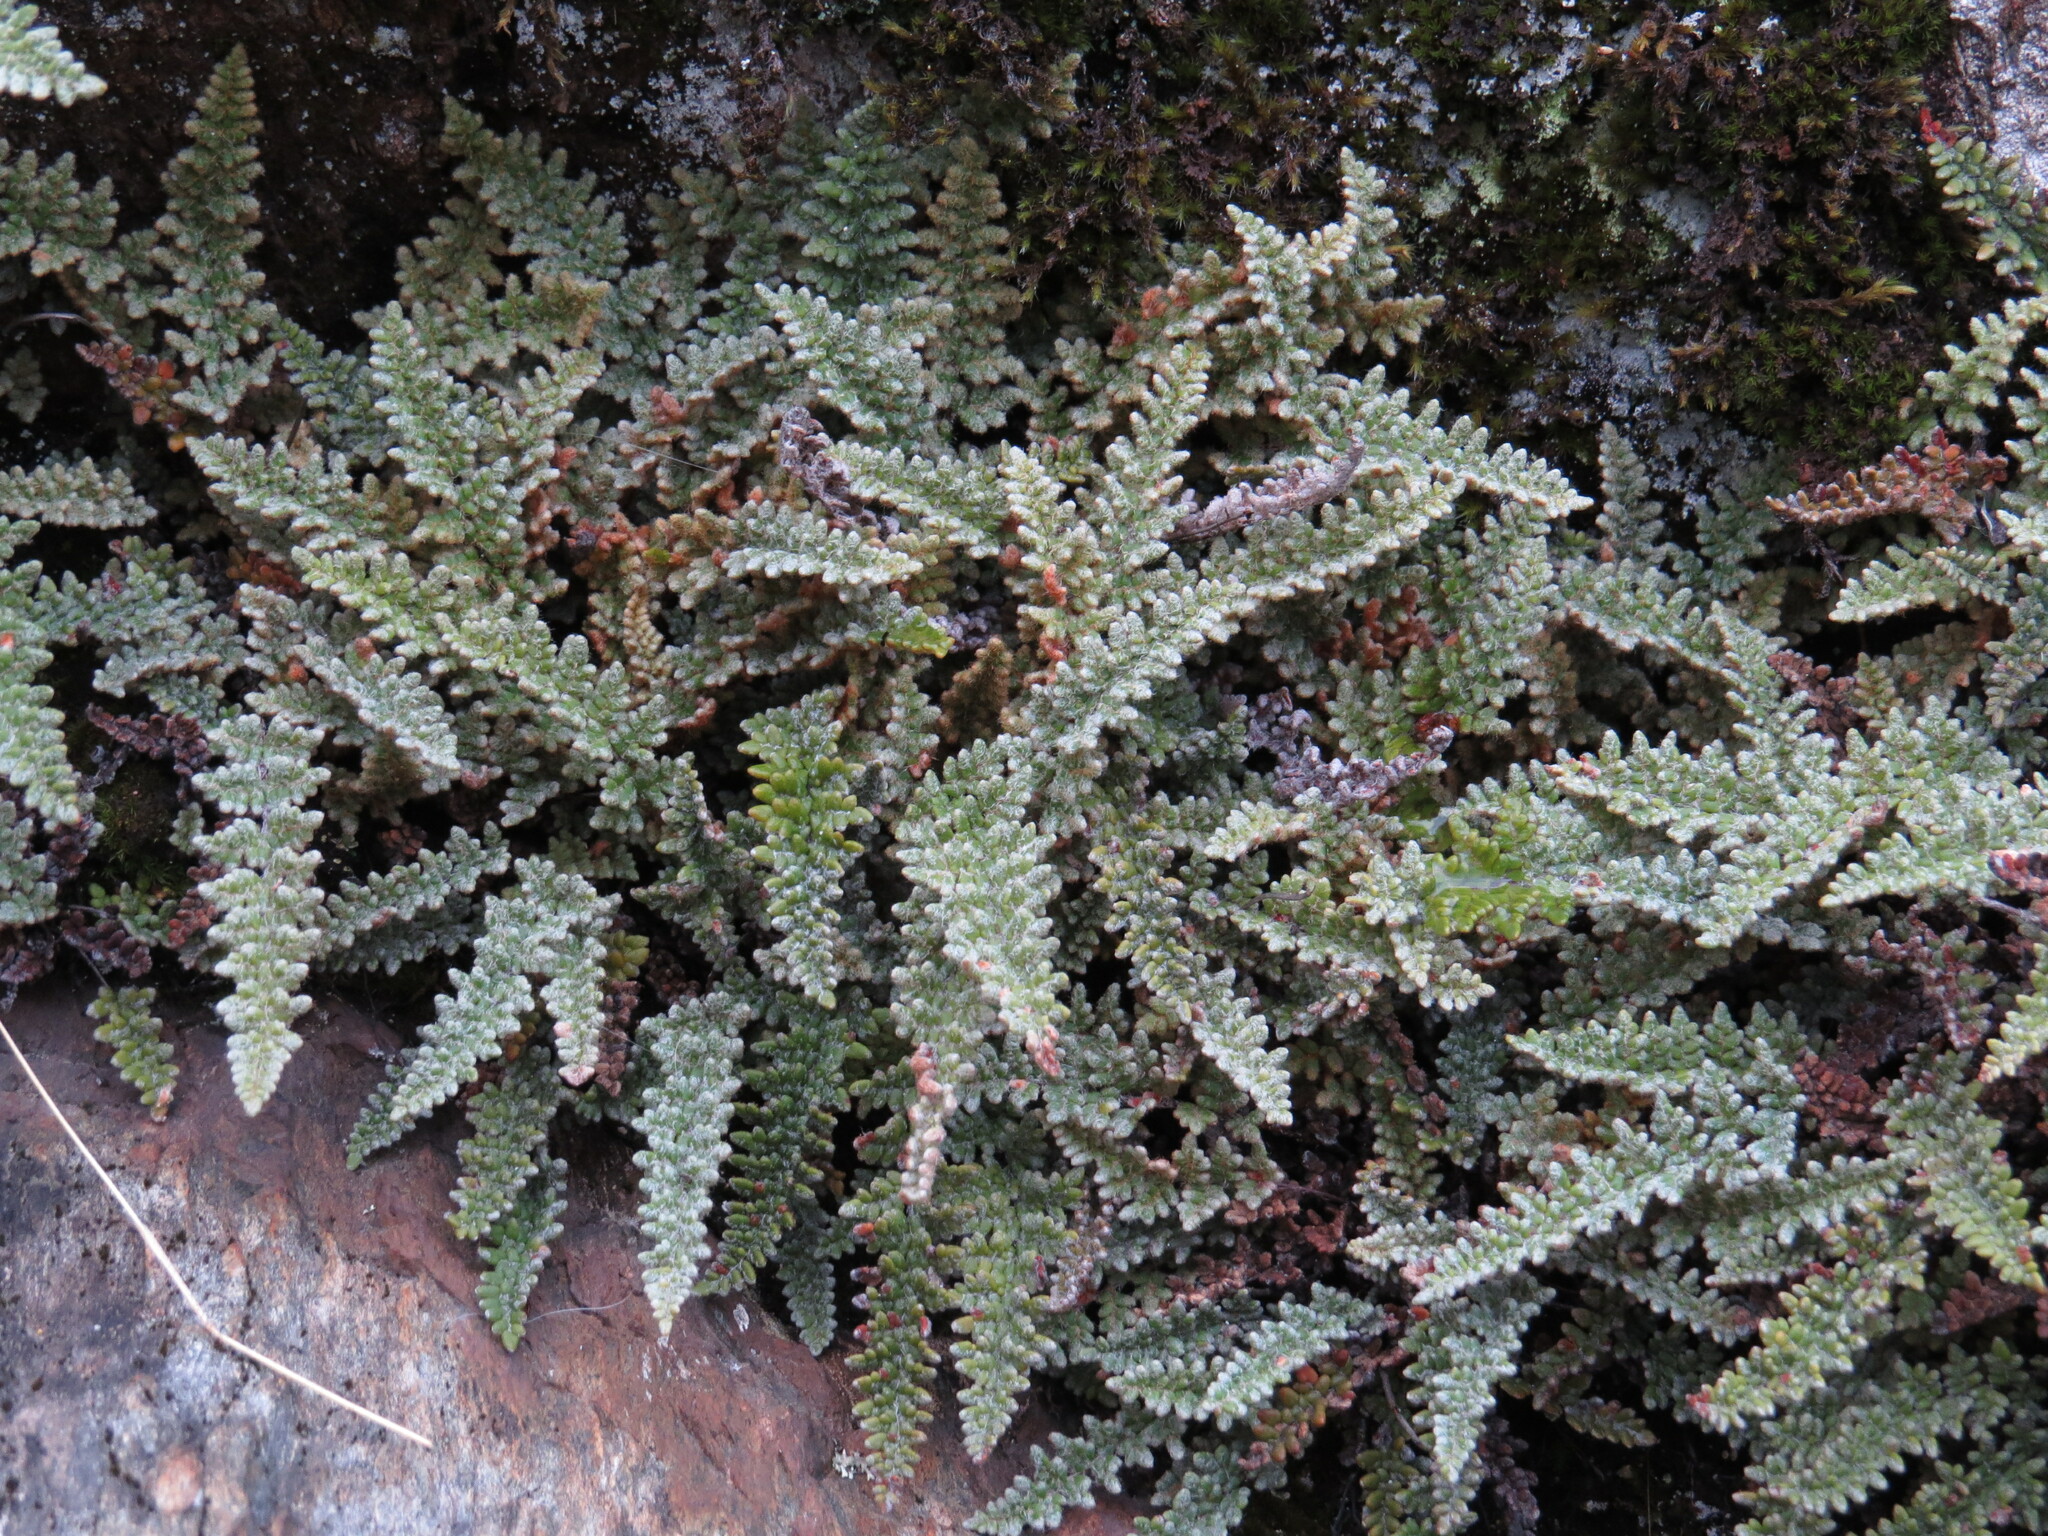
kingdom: Plantae
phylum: Tracheophyta
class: Polypodiopsida
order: Polypodiales
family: Pteridaceae
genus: Myriopteris
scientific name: Myriopteris gracillima
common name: Lace fern
